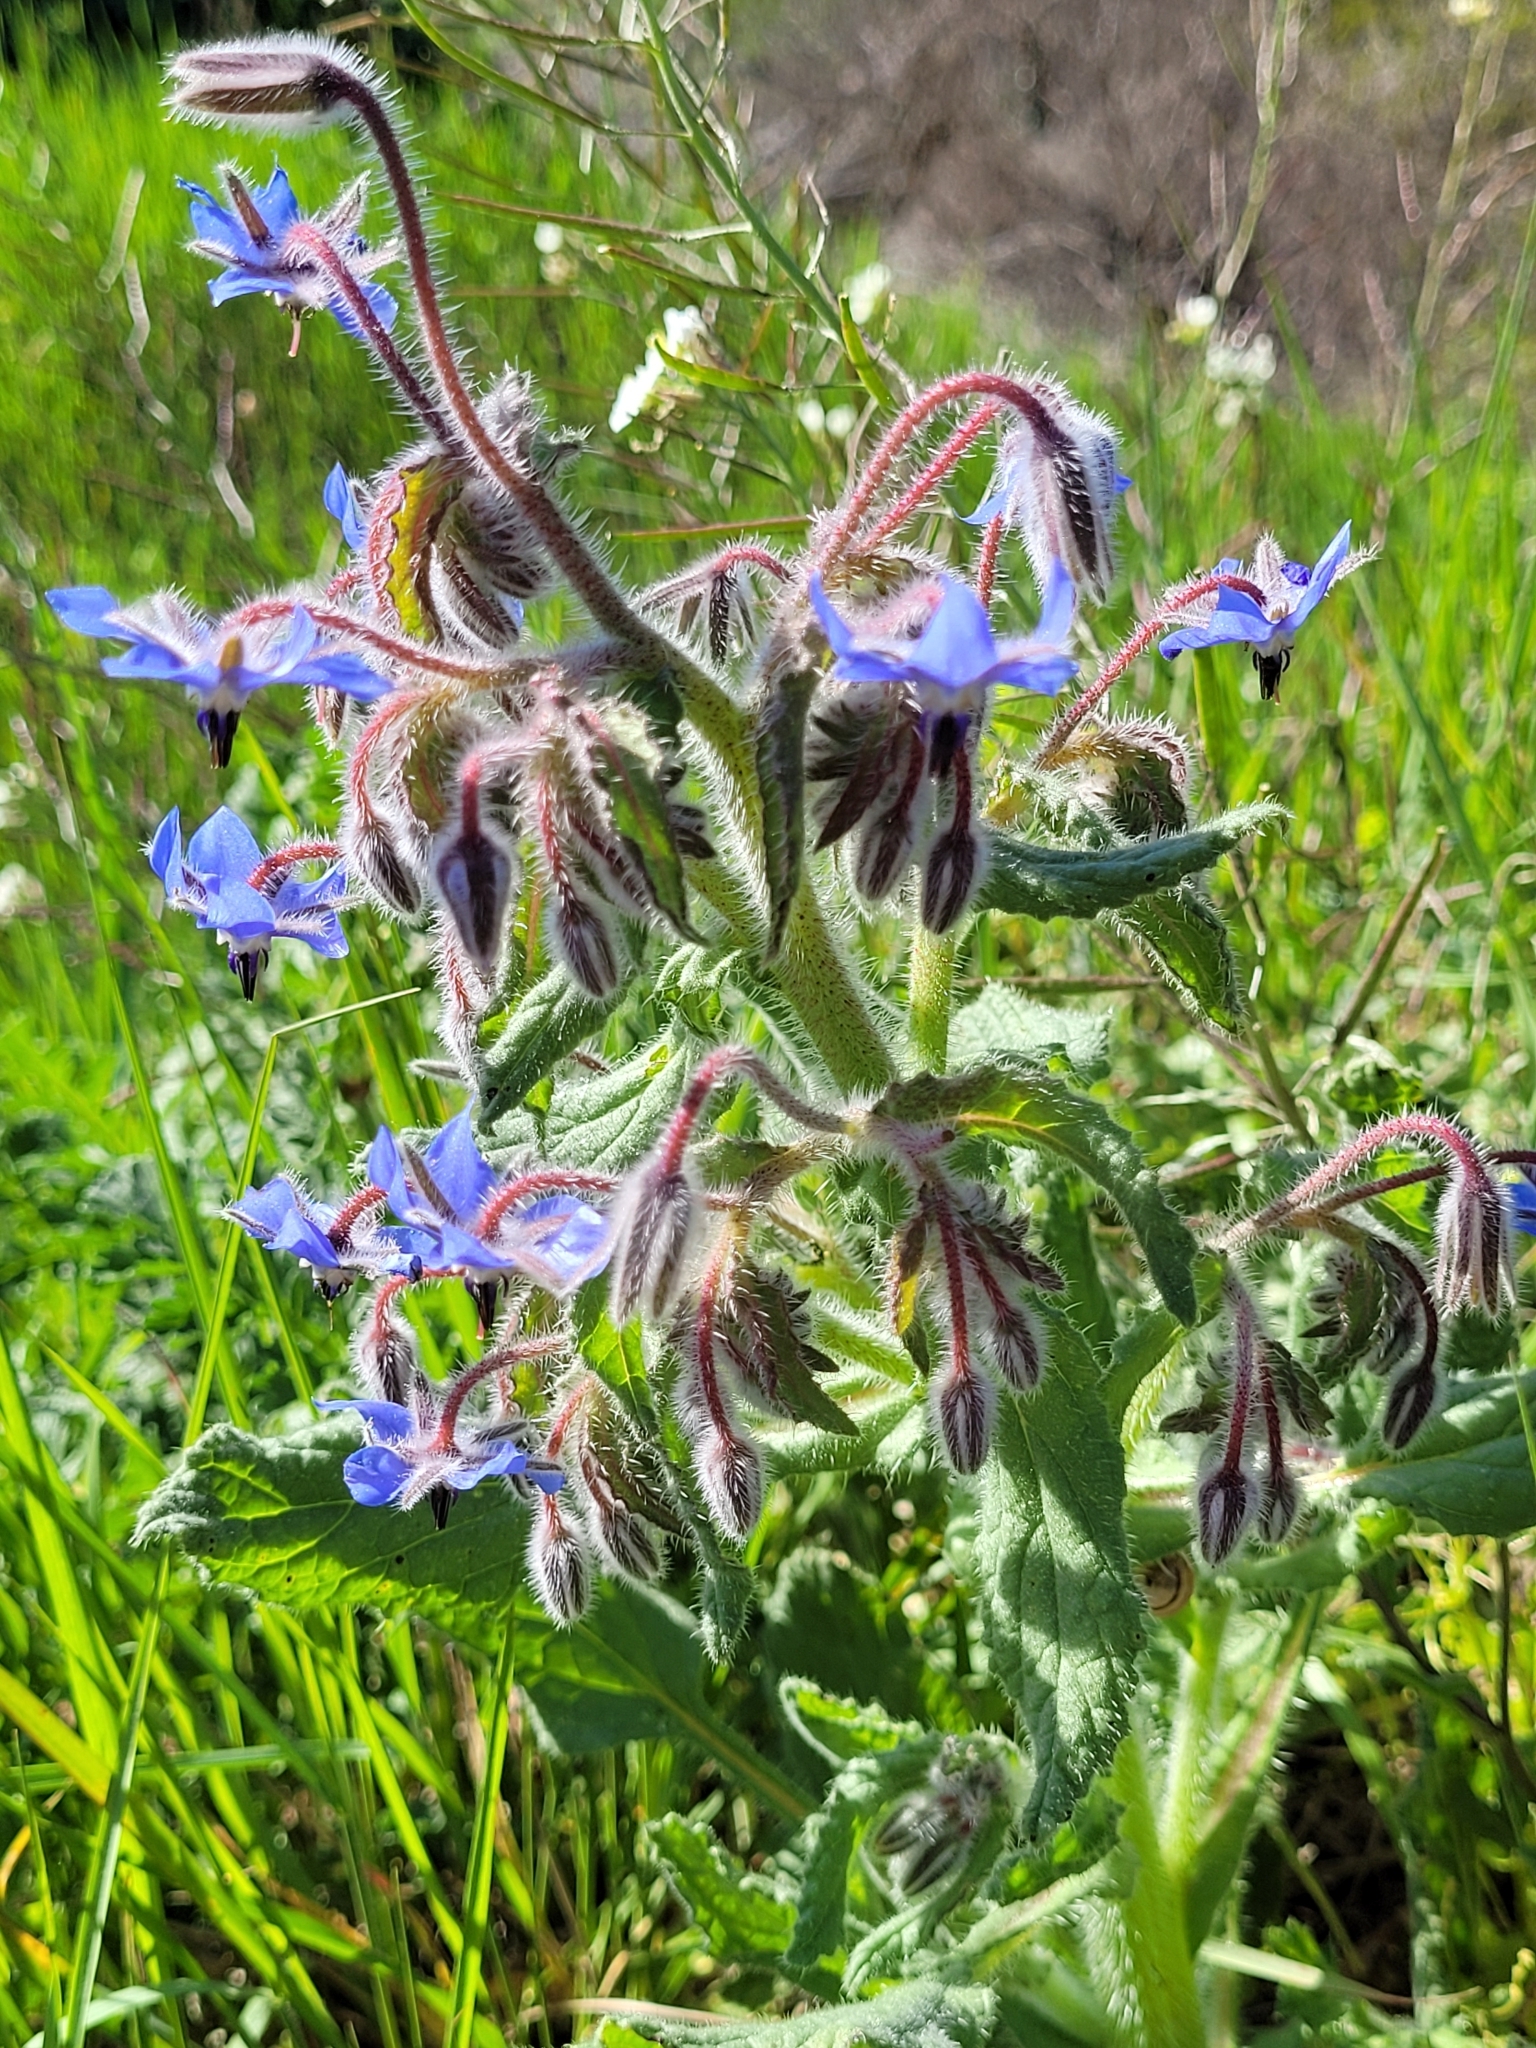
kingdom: Plantae
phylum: Tracheophyta
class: Magnoliopsida
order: Boraginales
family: Boraginaceae
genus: Borago
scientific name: Borago officinalis
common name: Borage
